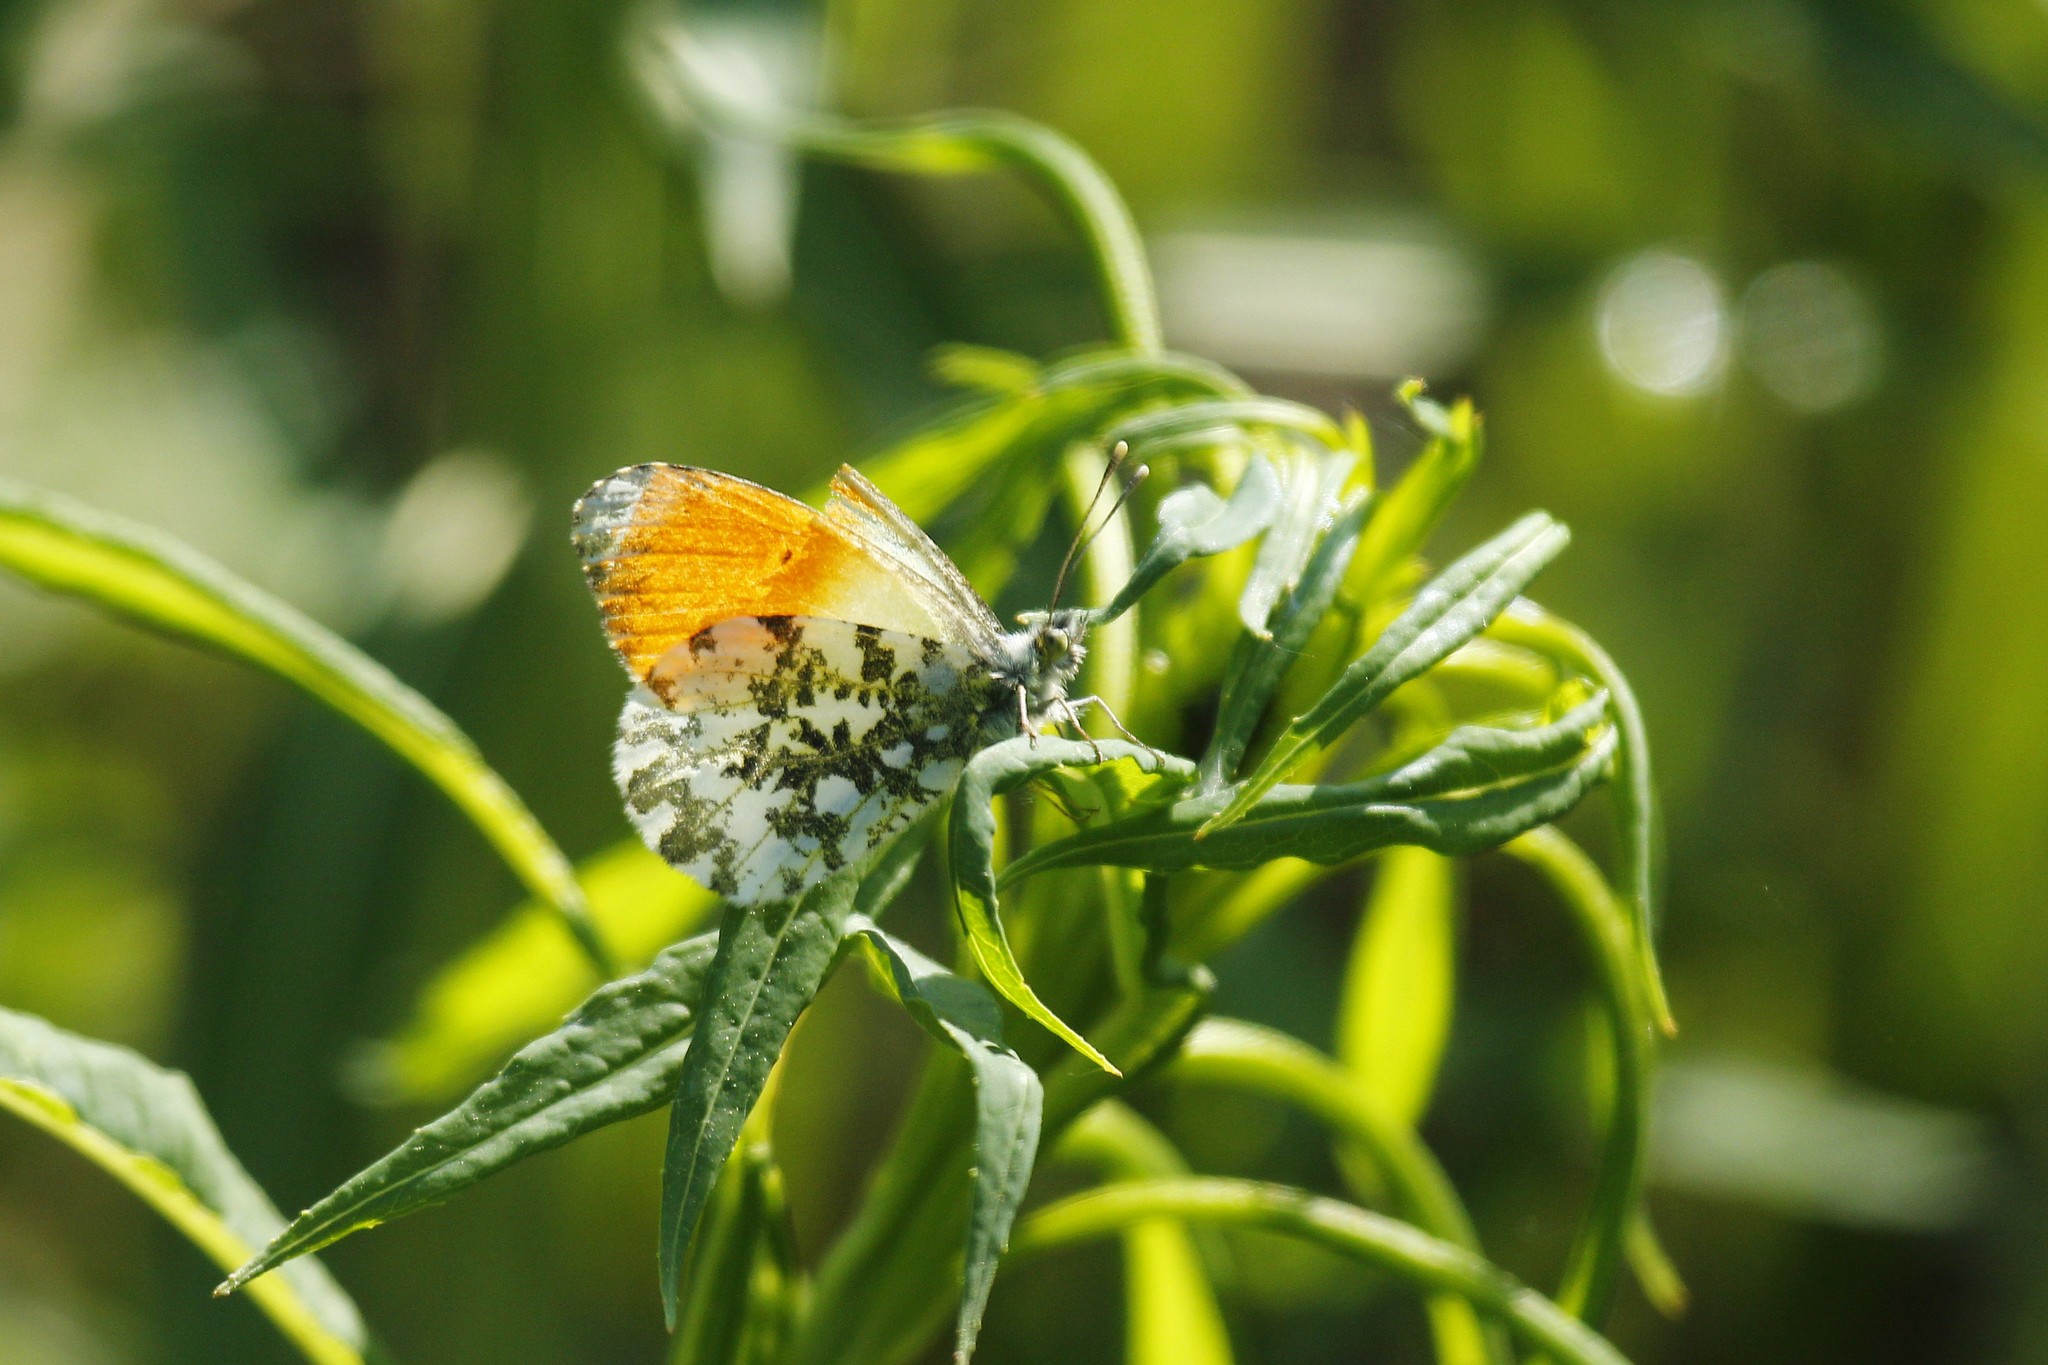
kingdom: Animalia
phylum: Arthropoda
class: Insecta
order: Lepidoptera
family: Pieridae
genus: Anthocharis
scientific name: Anthocharis cardamines
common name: Orange-tip
